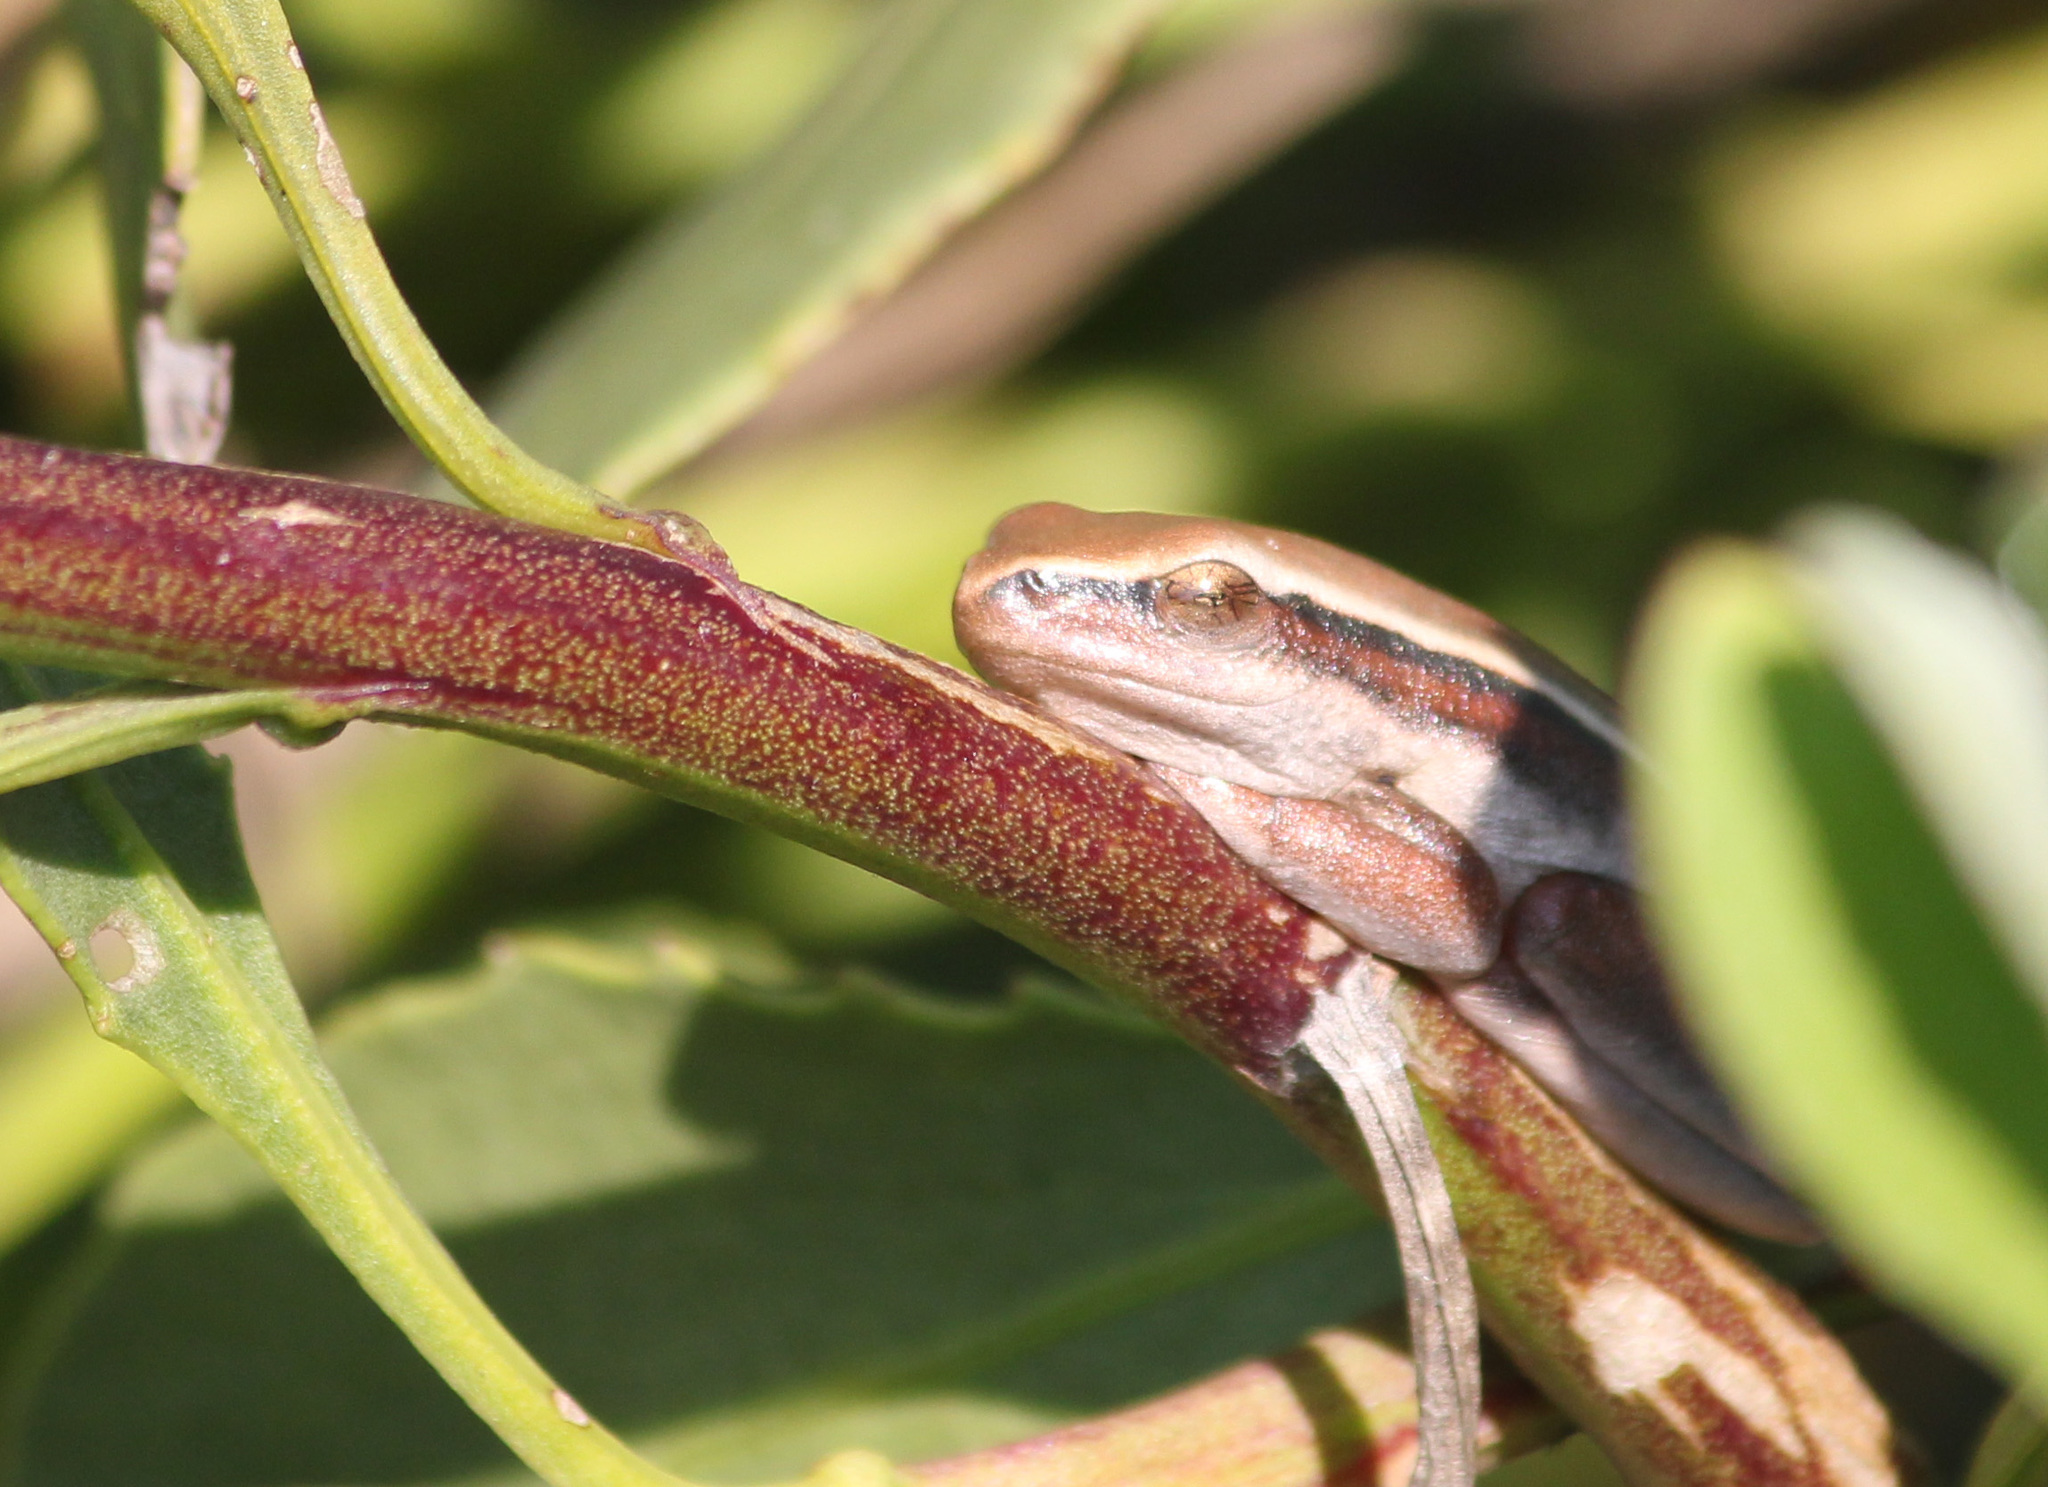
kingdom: Animalia
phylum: Chordata
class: Amphibia
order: Anura
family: Hyperoliidae
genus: Hyperolius
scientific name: Hyperolius horstockii
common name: Arum lily frog
